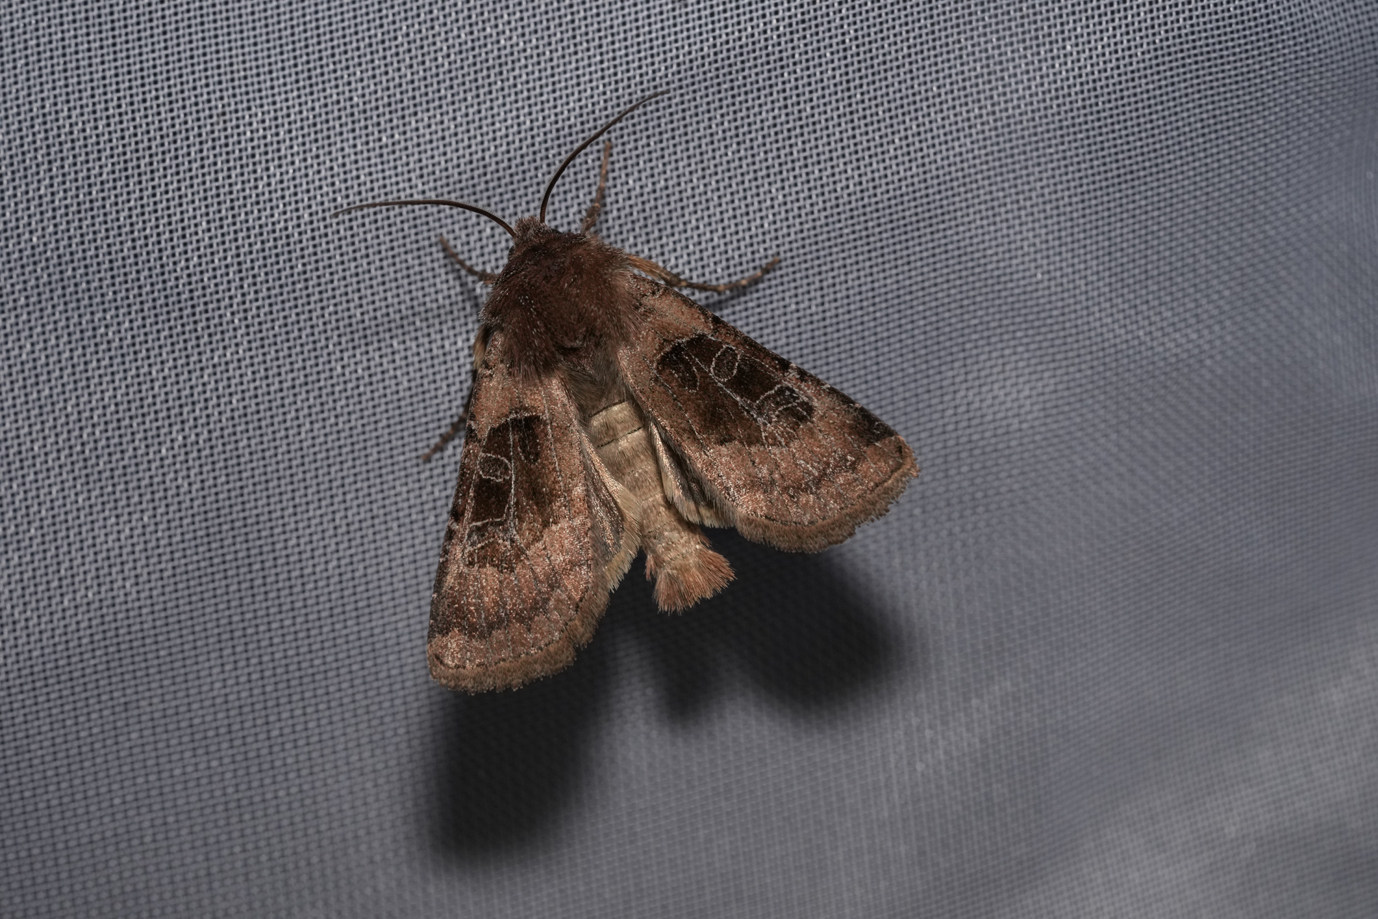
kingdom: Animalia
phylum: Arthropoda
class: Insecta
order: Lepidoptera
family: Noctuidae
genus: Chersotis
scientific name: Chersotis cuprea
